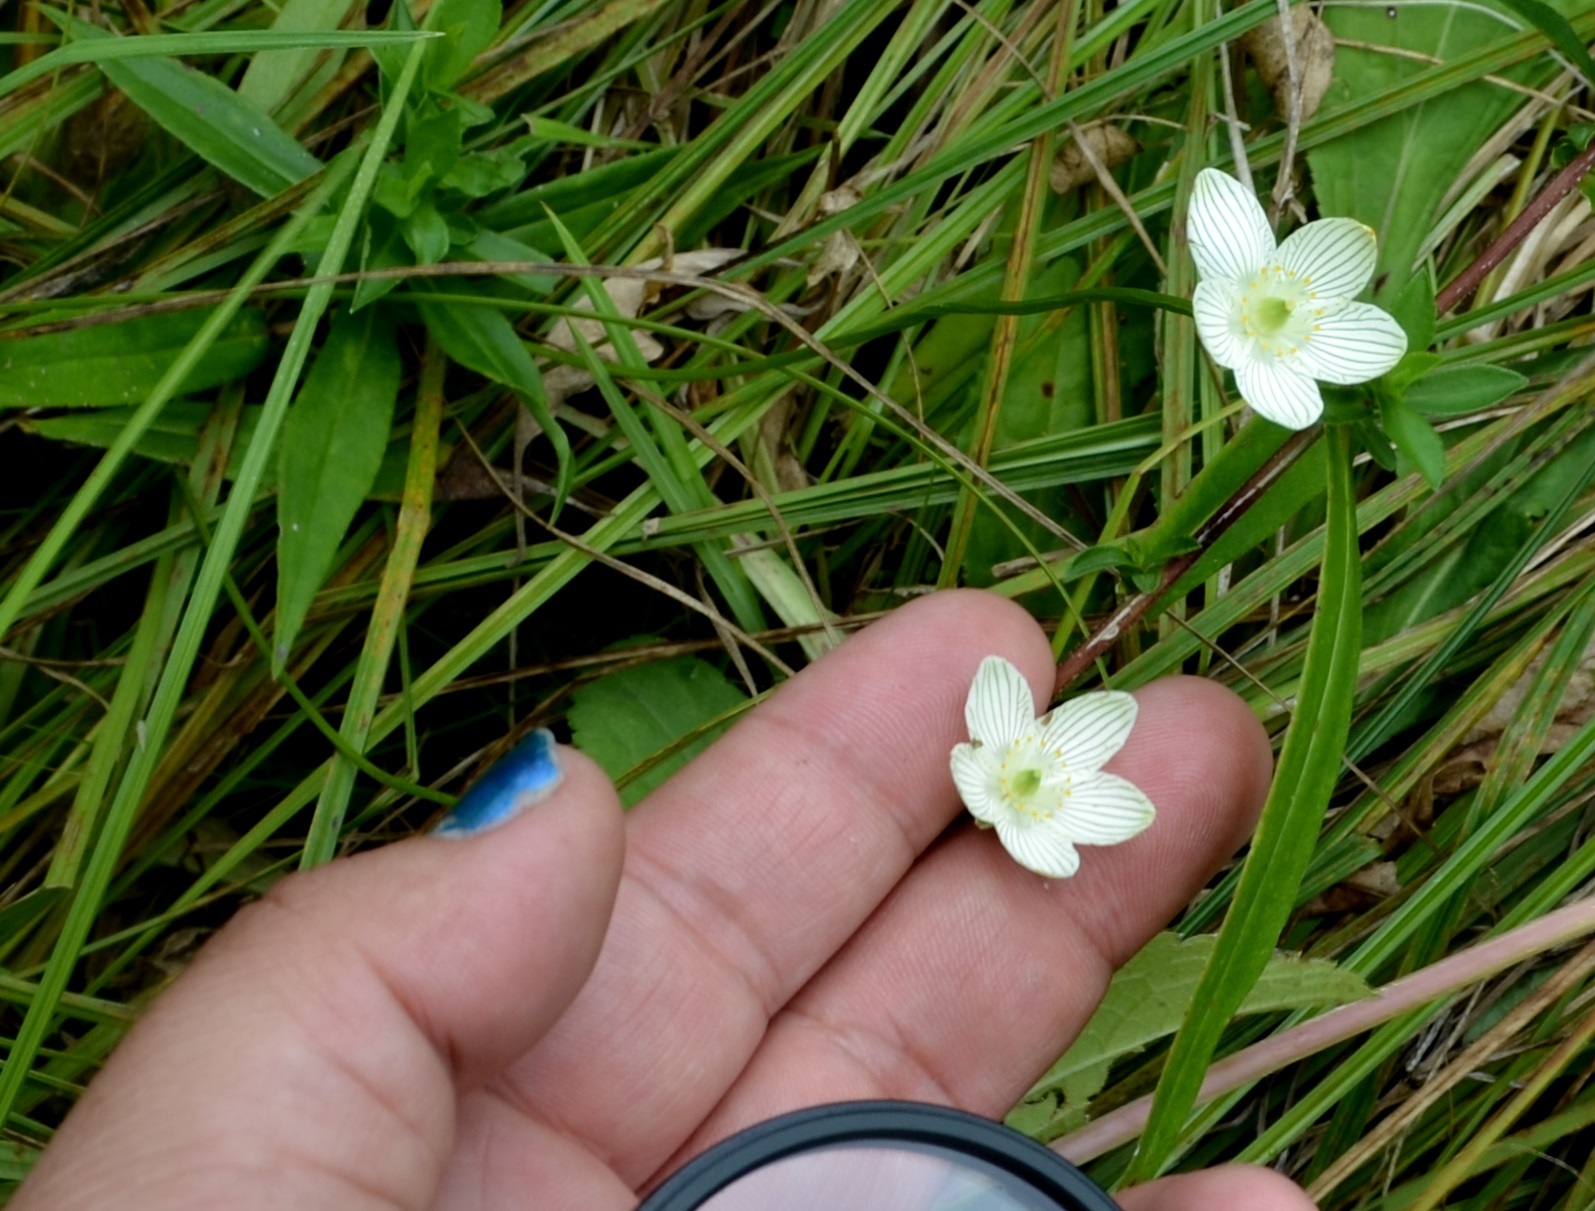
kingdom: Plantae
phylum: Tracheophyta
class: Magnoliopsida
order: Celastrales
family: Parnassiaceae
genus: Parnassia
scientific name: Parnassia glauca
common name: American grass-of-parnassus
